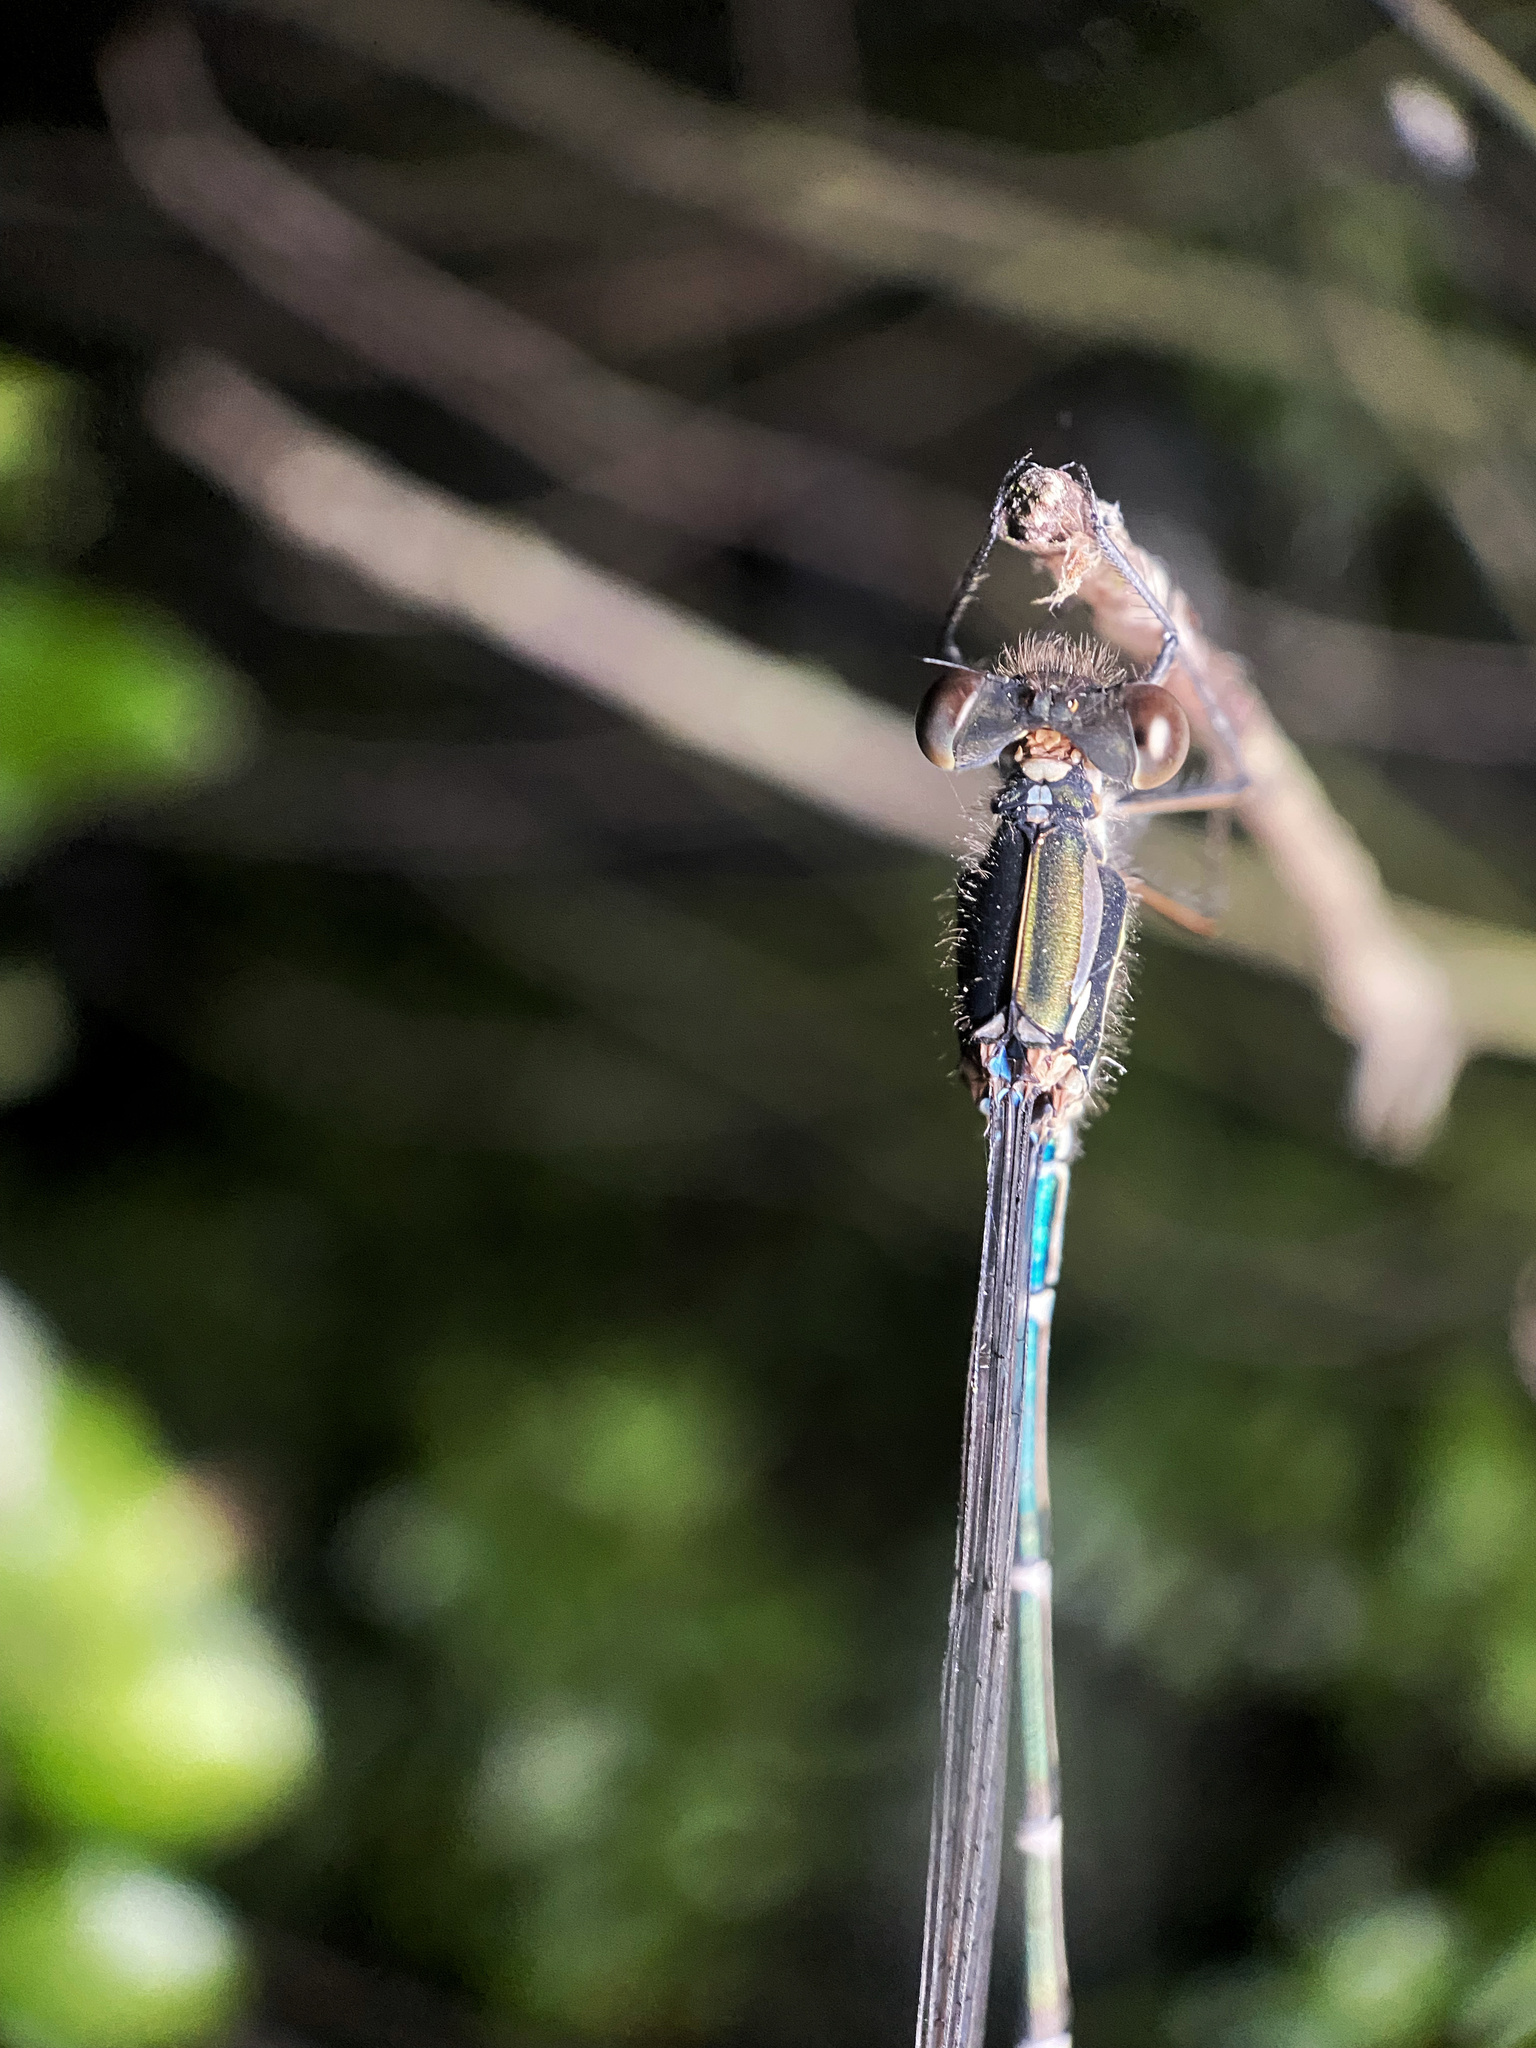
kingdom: Animalia
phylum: Arthropoda
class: Insecta
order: Odonata
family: Lestidae
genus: Austrolestes
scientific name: Austrolestes colensonis
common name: Blue damselfly
